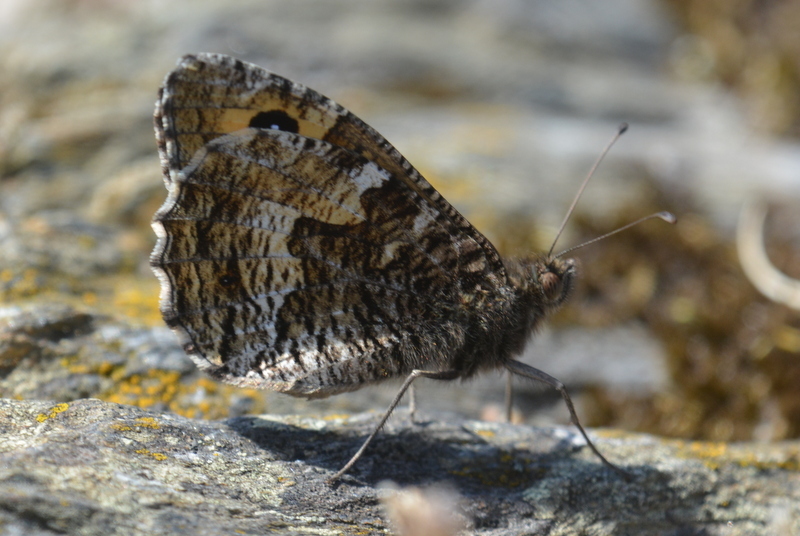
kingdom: Animalia
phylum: Arthropoda
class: Insecta
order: Lepidoptera
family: Nymphalidae
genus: Hipparchia
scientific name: Hipparchia semele
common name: Grayling
